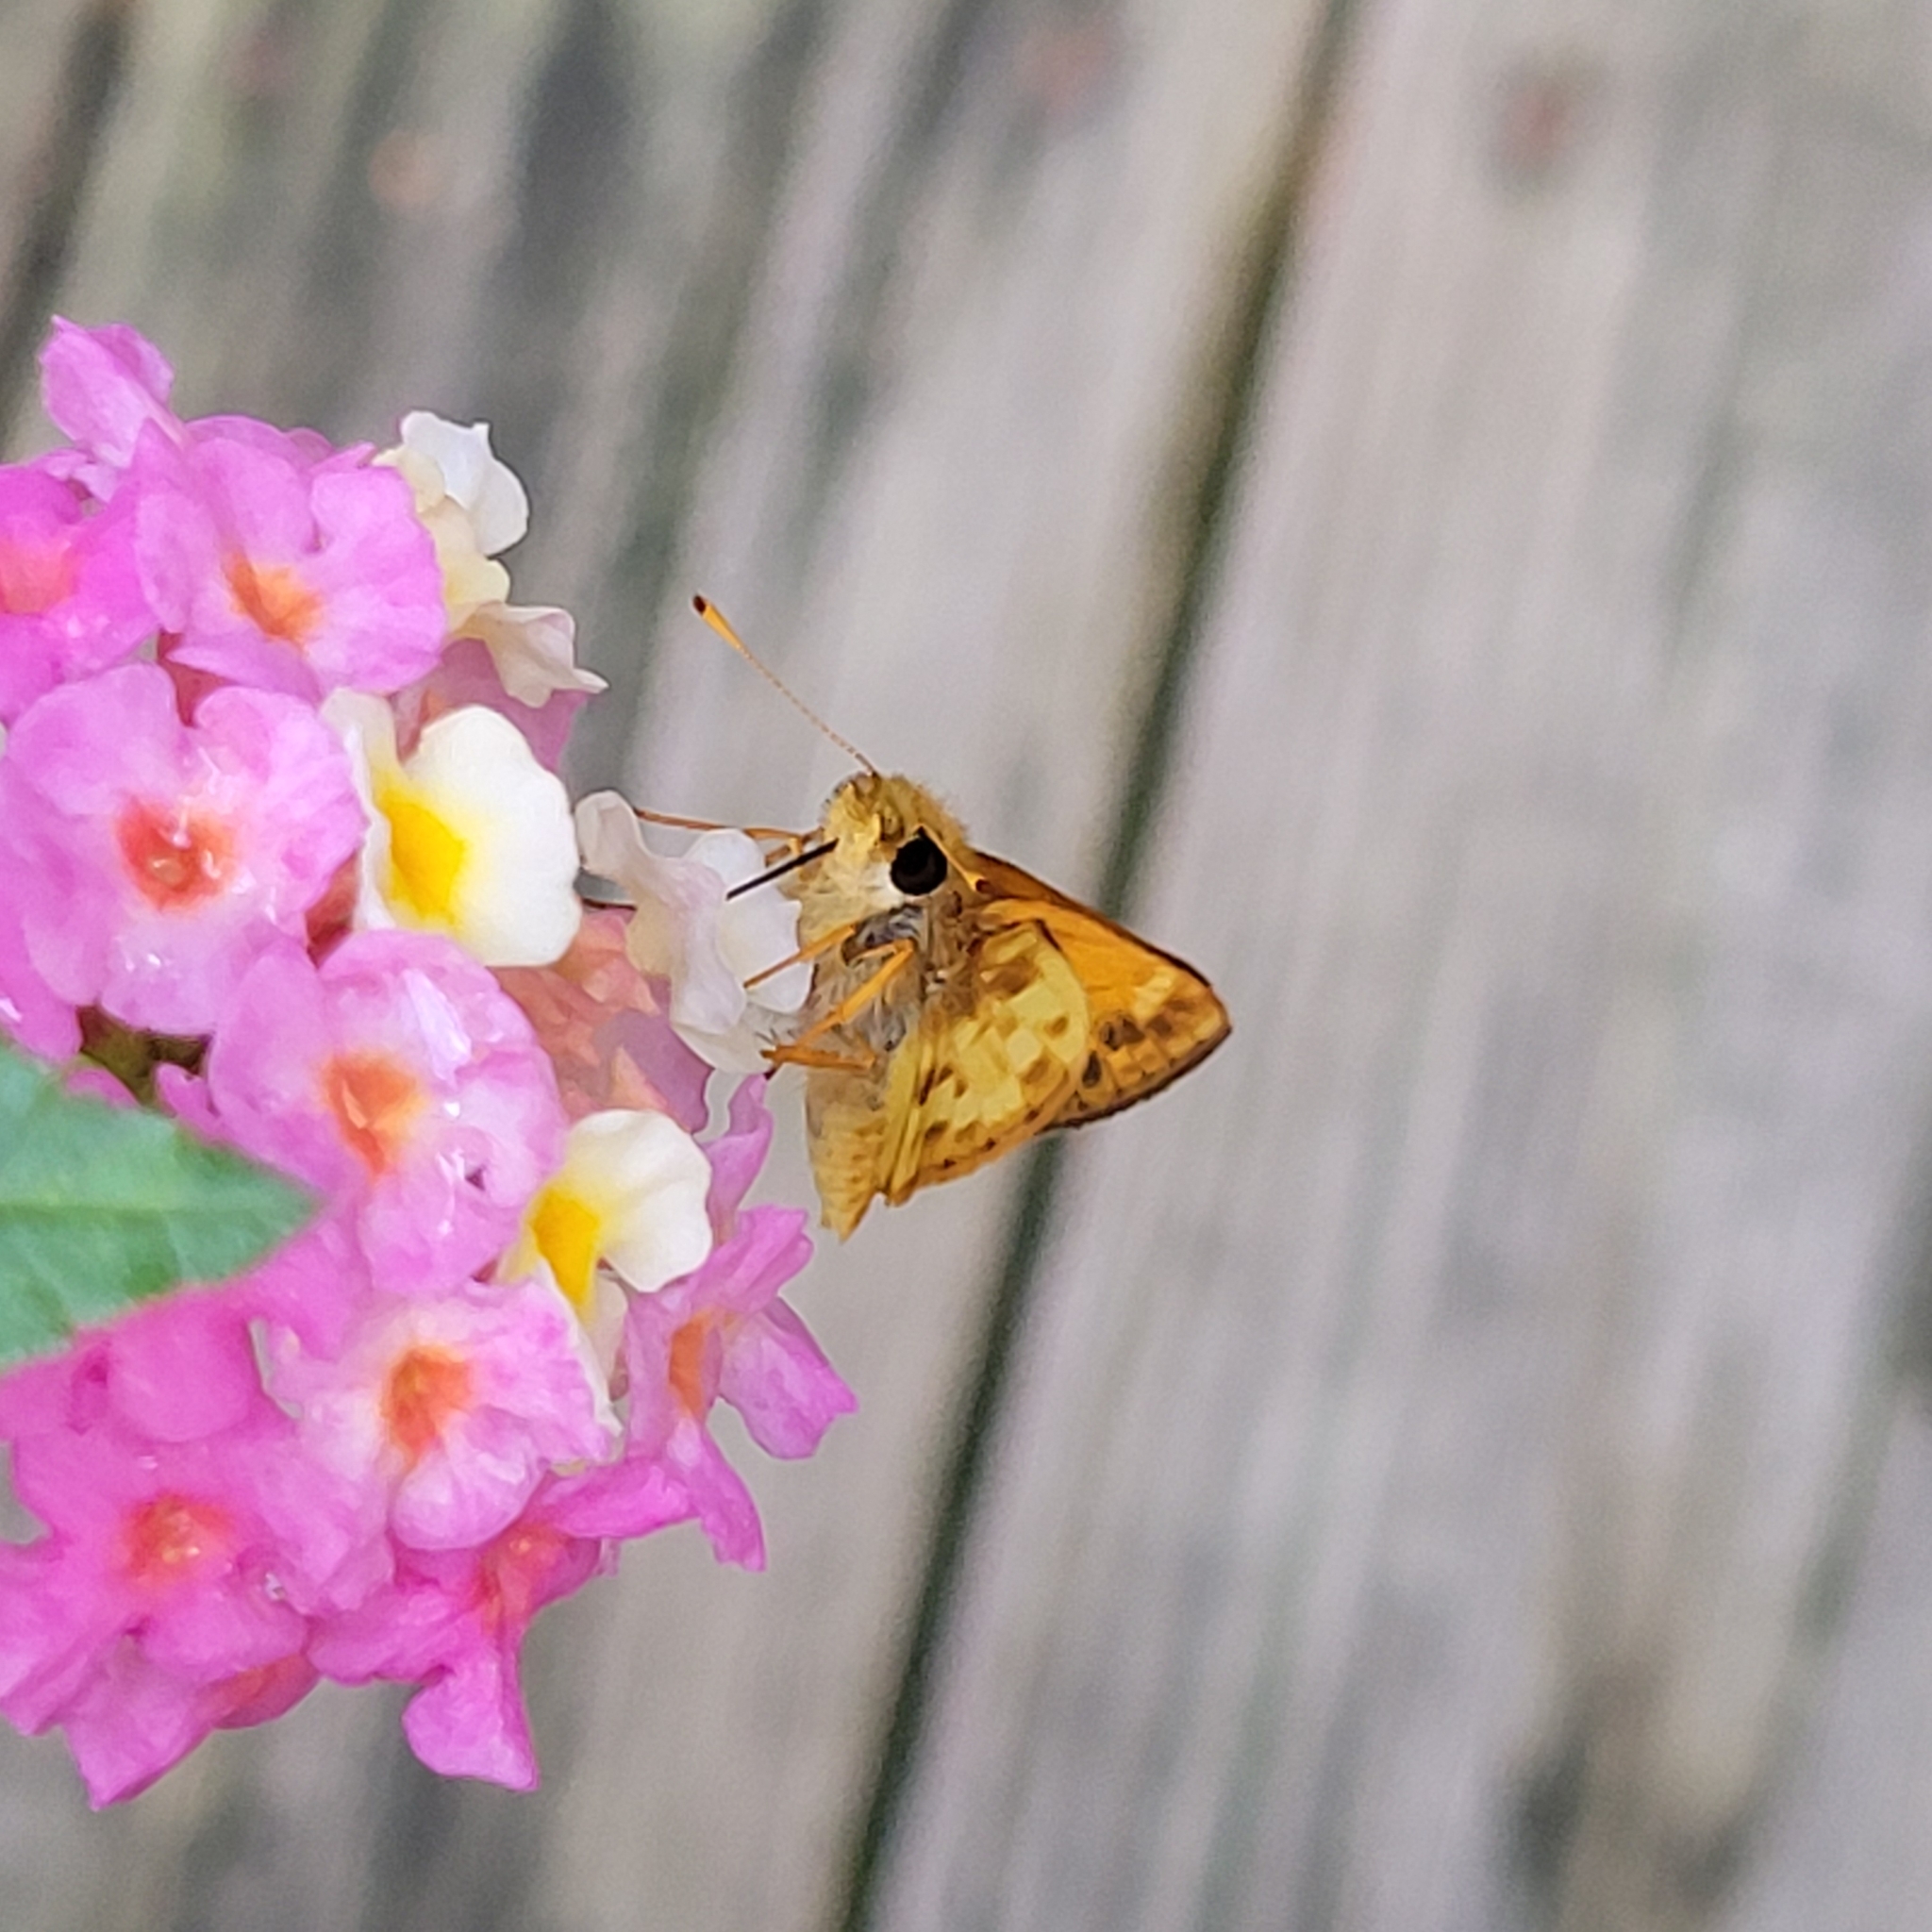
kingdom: Animalia
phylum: Arthropoda
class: Insecta
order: Lepidoptera
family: Hesperiidae
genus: Lon
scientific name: Lon zabulon
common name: Zabulon skipper
